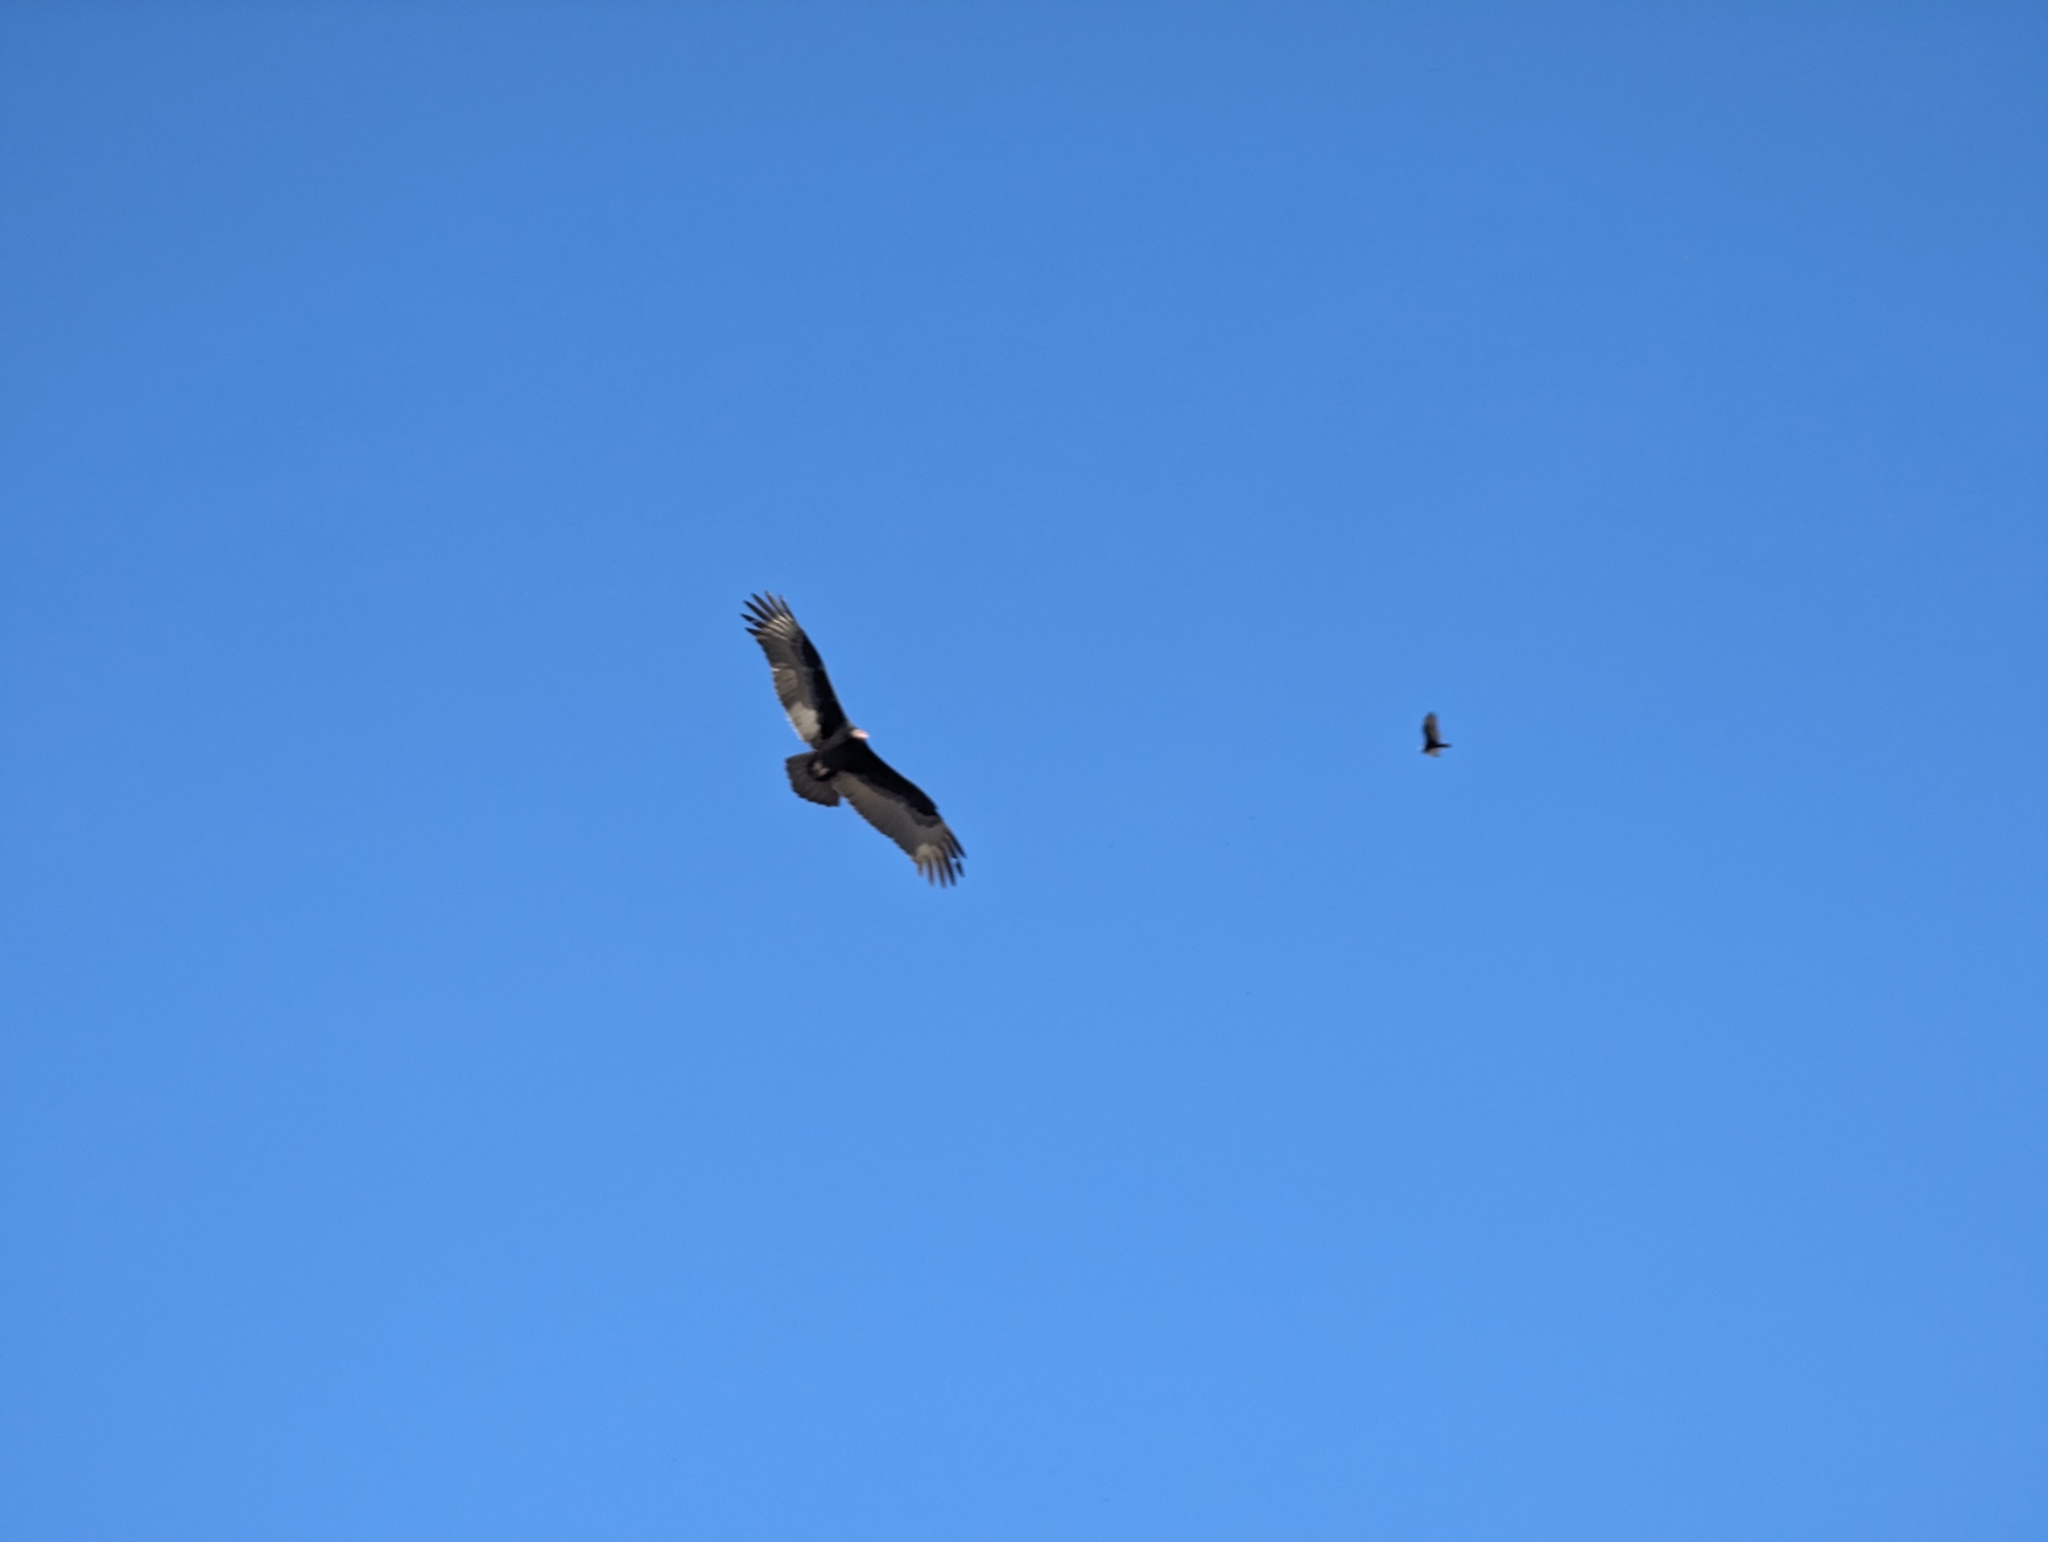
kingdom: Animalia
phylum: Chordata
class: Aves
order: Accipitriformes
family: Cathartidae
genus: Cathartes
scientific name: Cathartes aura
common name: Turkey vulture
